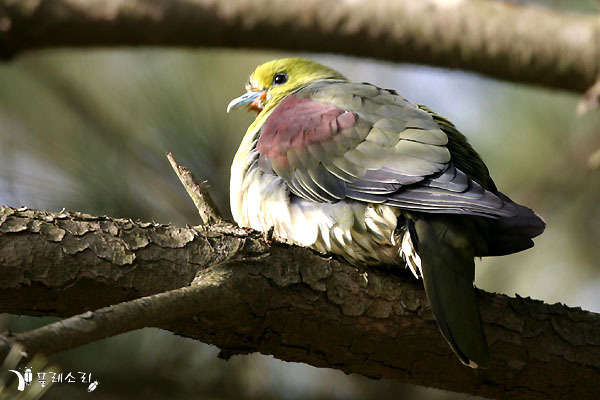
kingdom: Animalia
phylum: Chordata
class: Aves
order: Columbiformes
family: Columbidae
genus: Treron
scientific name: Treron sieboldii
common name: White-bellied green pigeon
